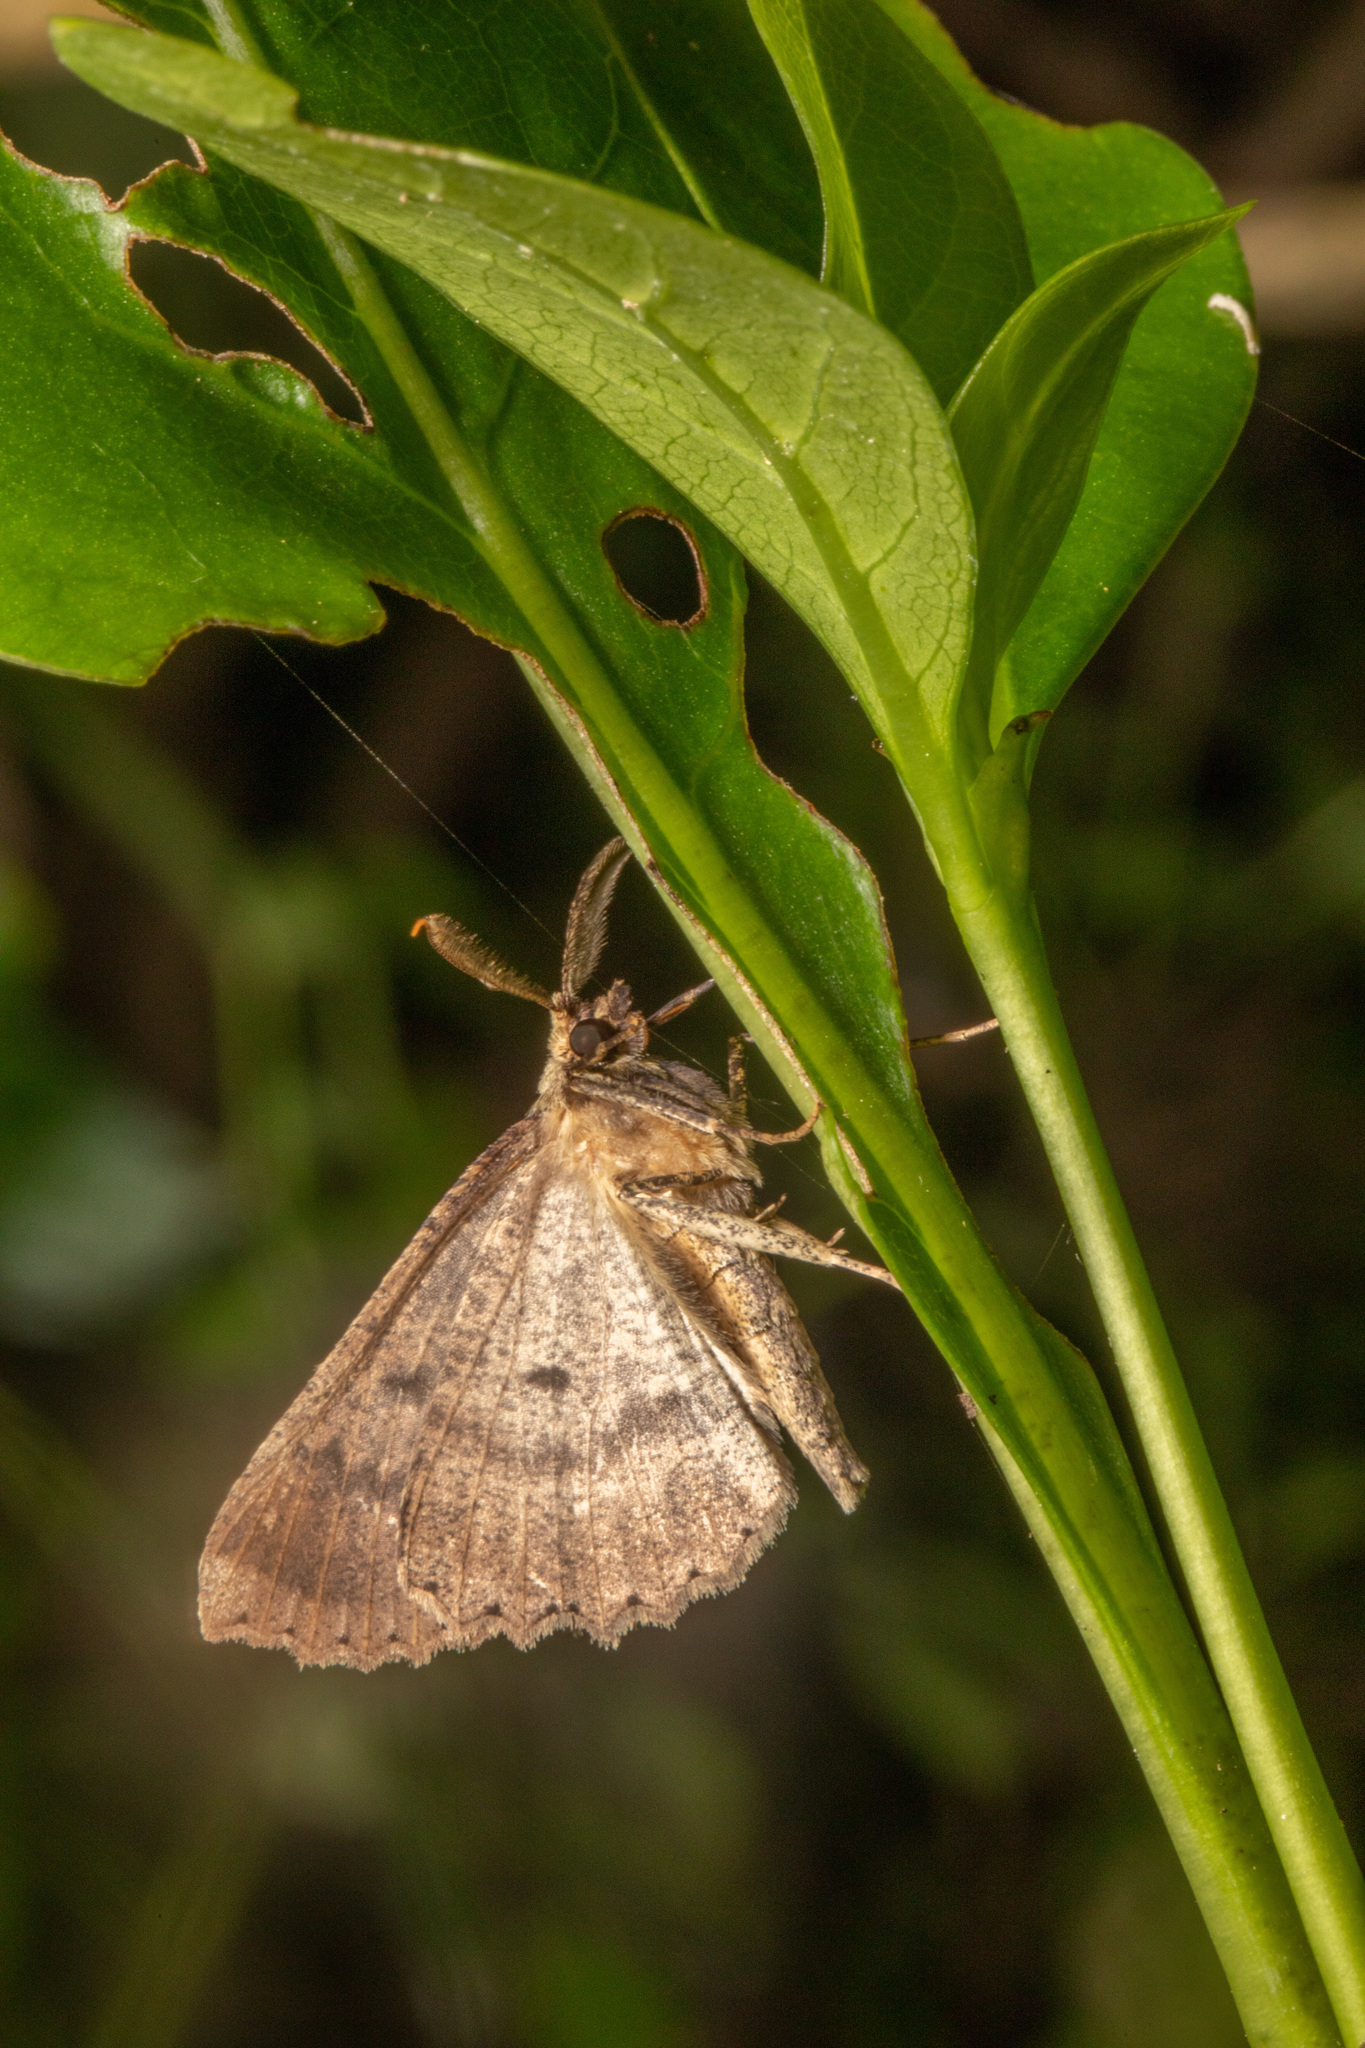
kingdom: Animalia
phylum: Arthropoda
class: Insecta
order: Lepidoptera
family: Geometridae
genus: Cleora
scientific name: Cleora scriptaria
